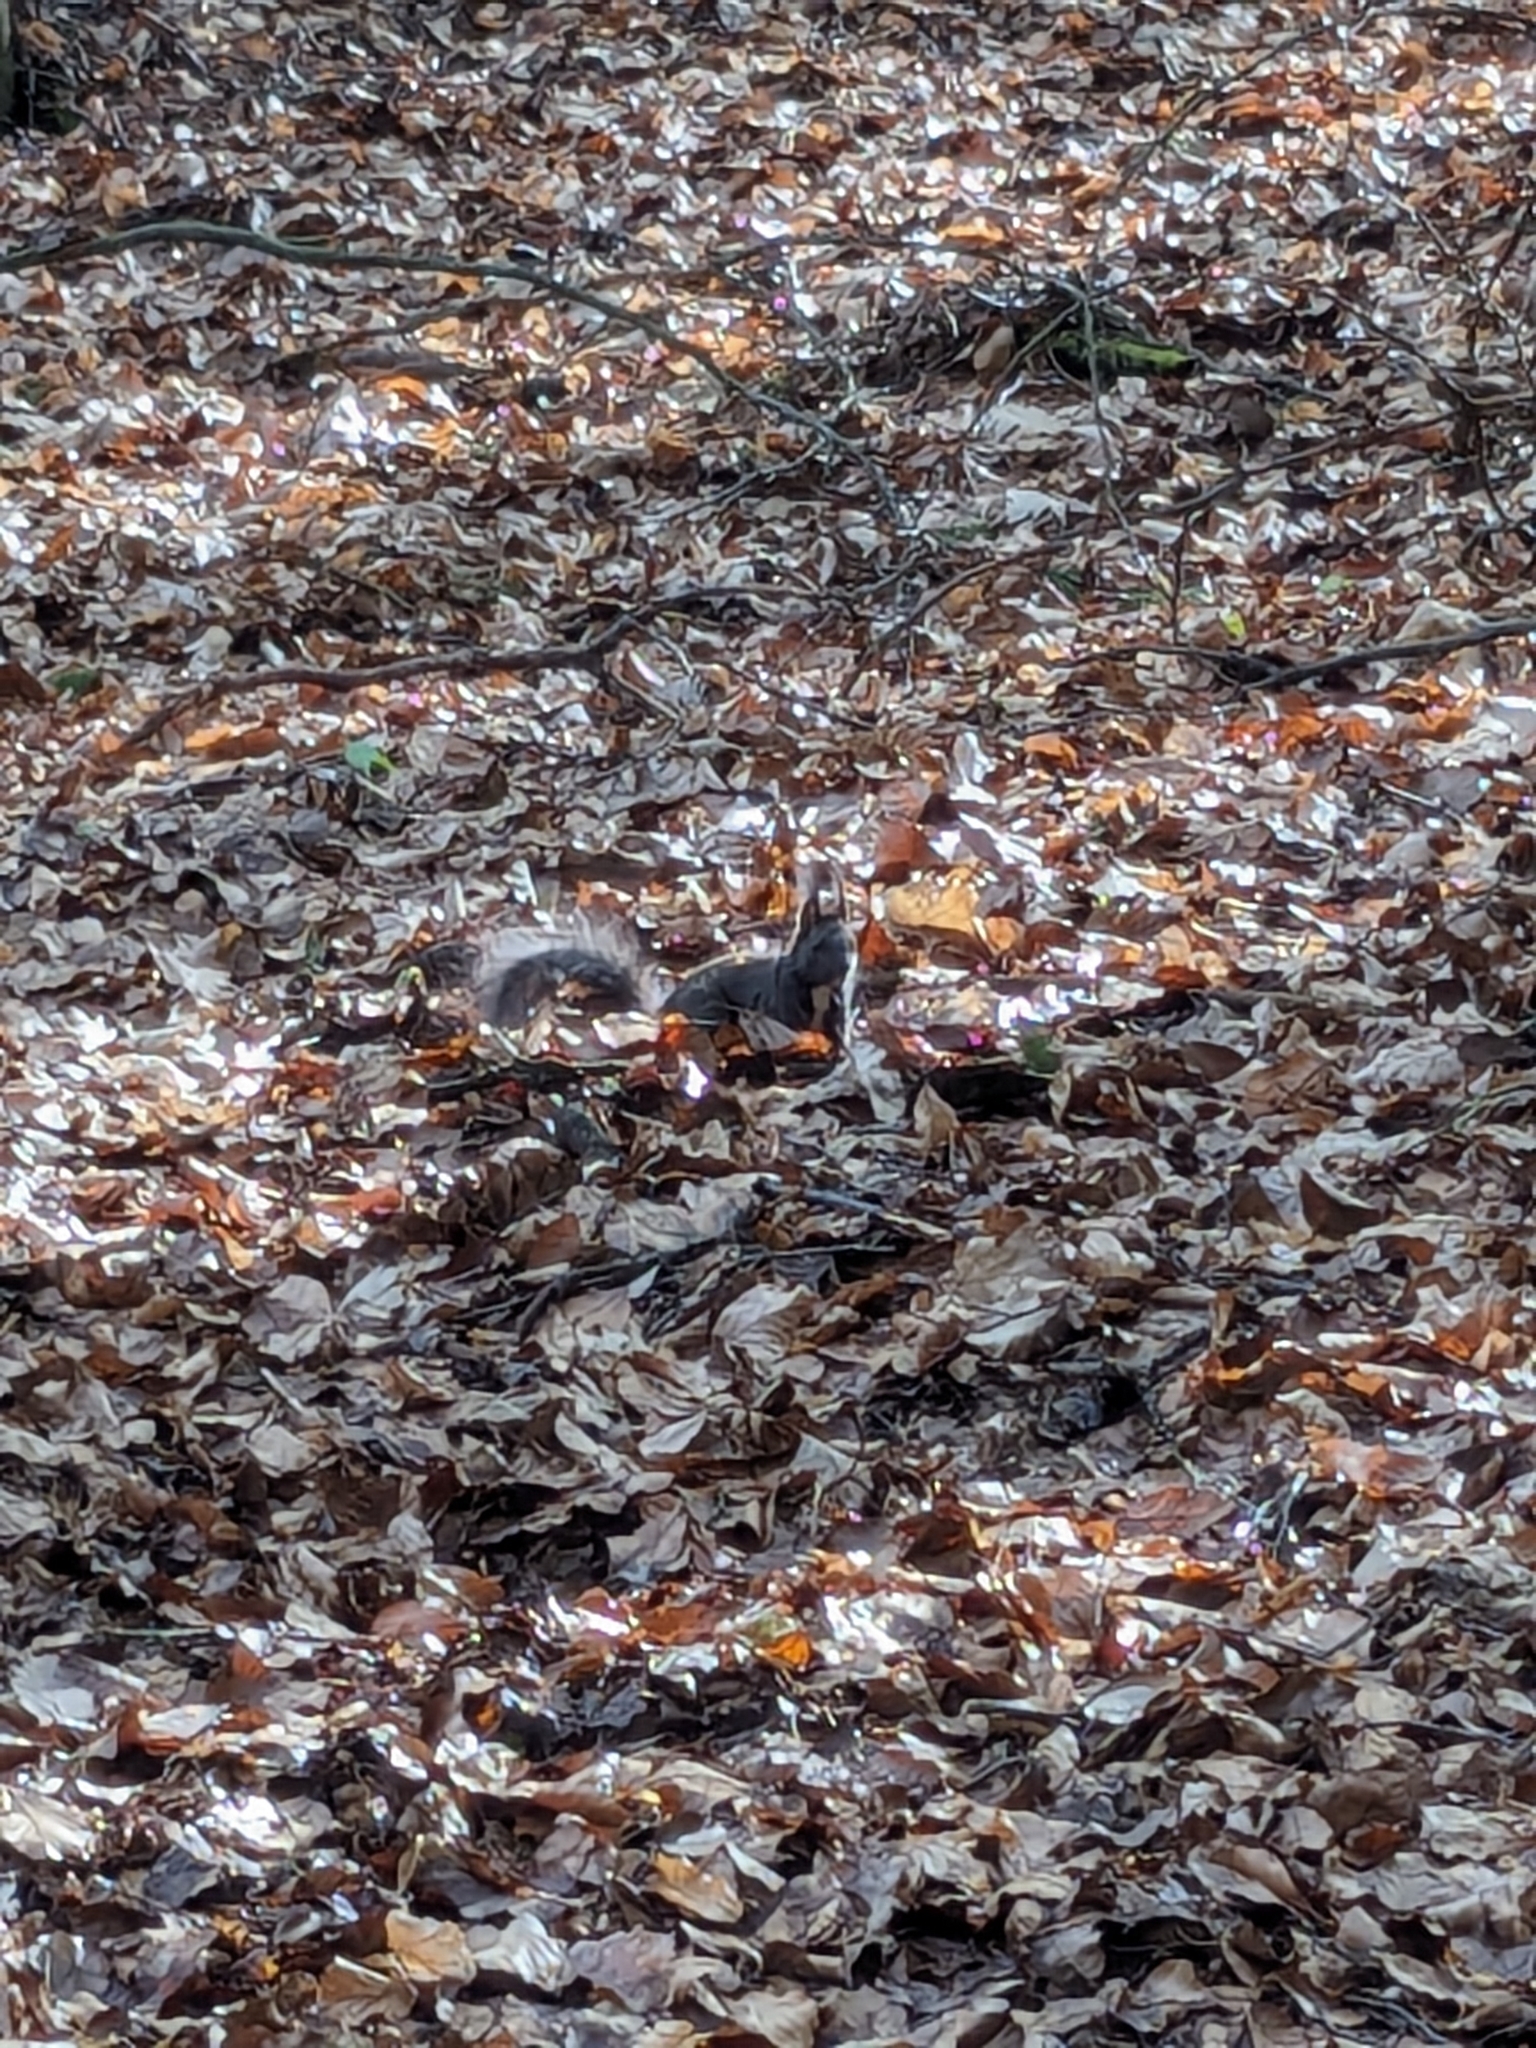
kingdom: Animalia
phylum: Chordata
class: Mammalia
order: Rodentia
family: Sciuridae
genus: Sciurus
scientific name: Sciurus vulgaris
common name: Eurasian red squirrel
